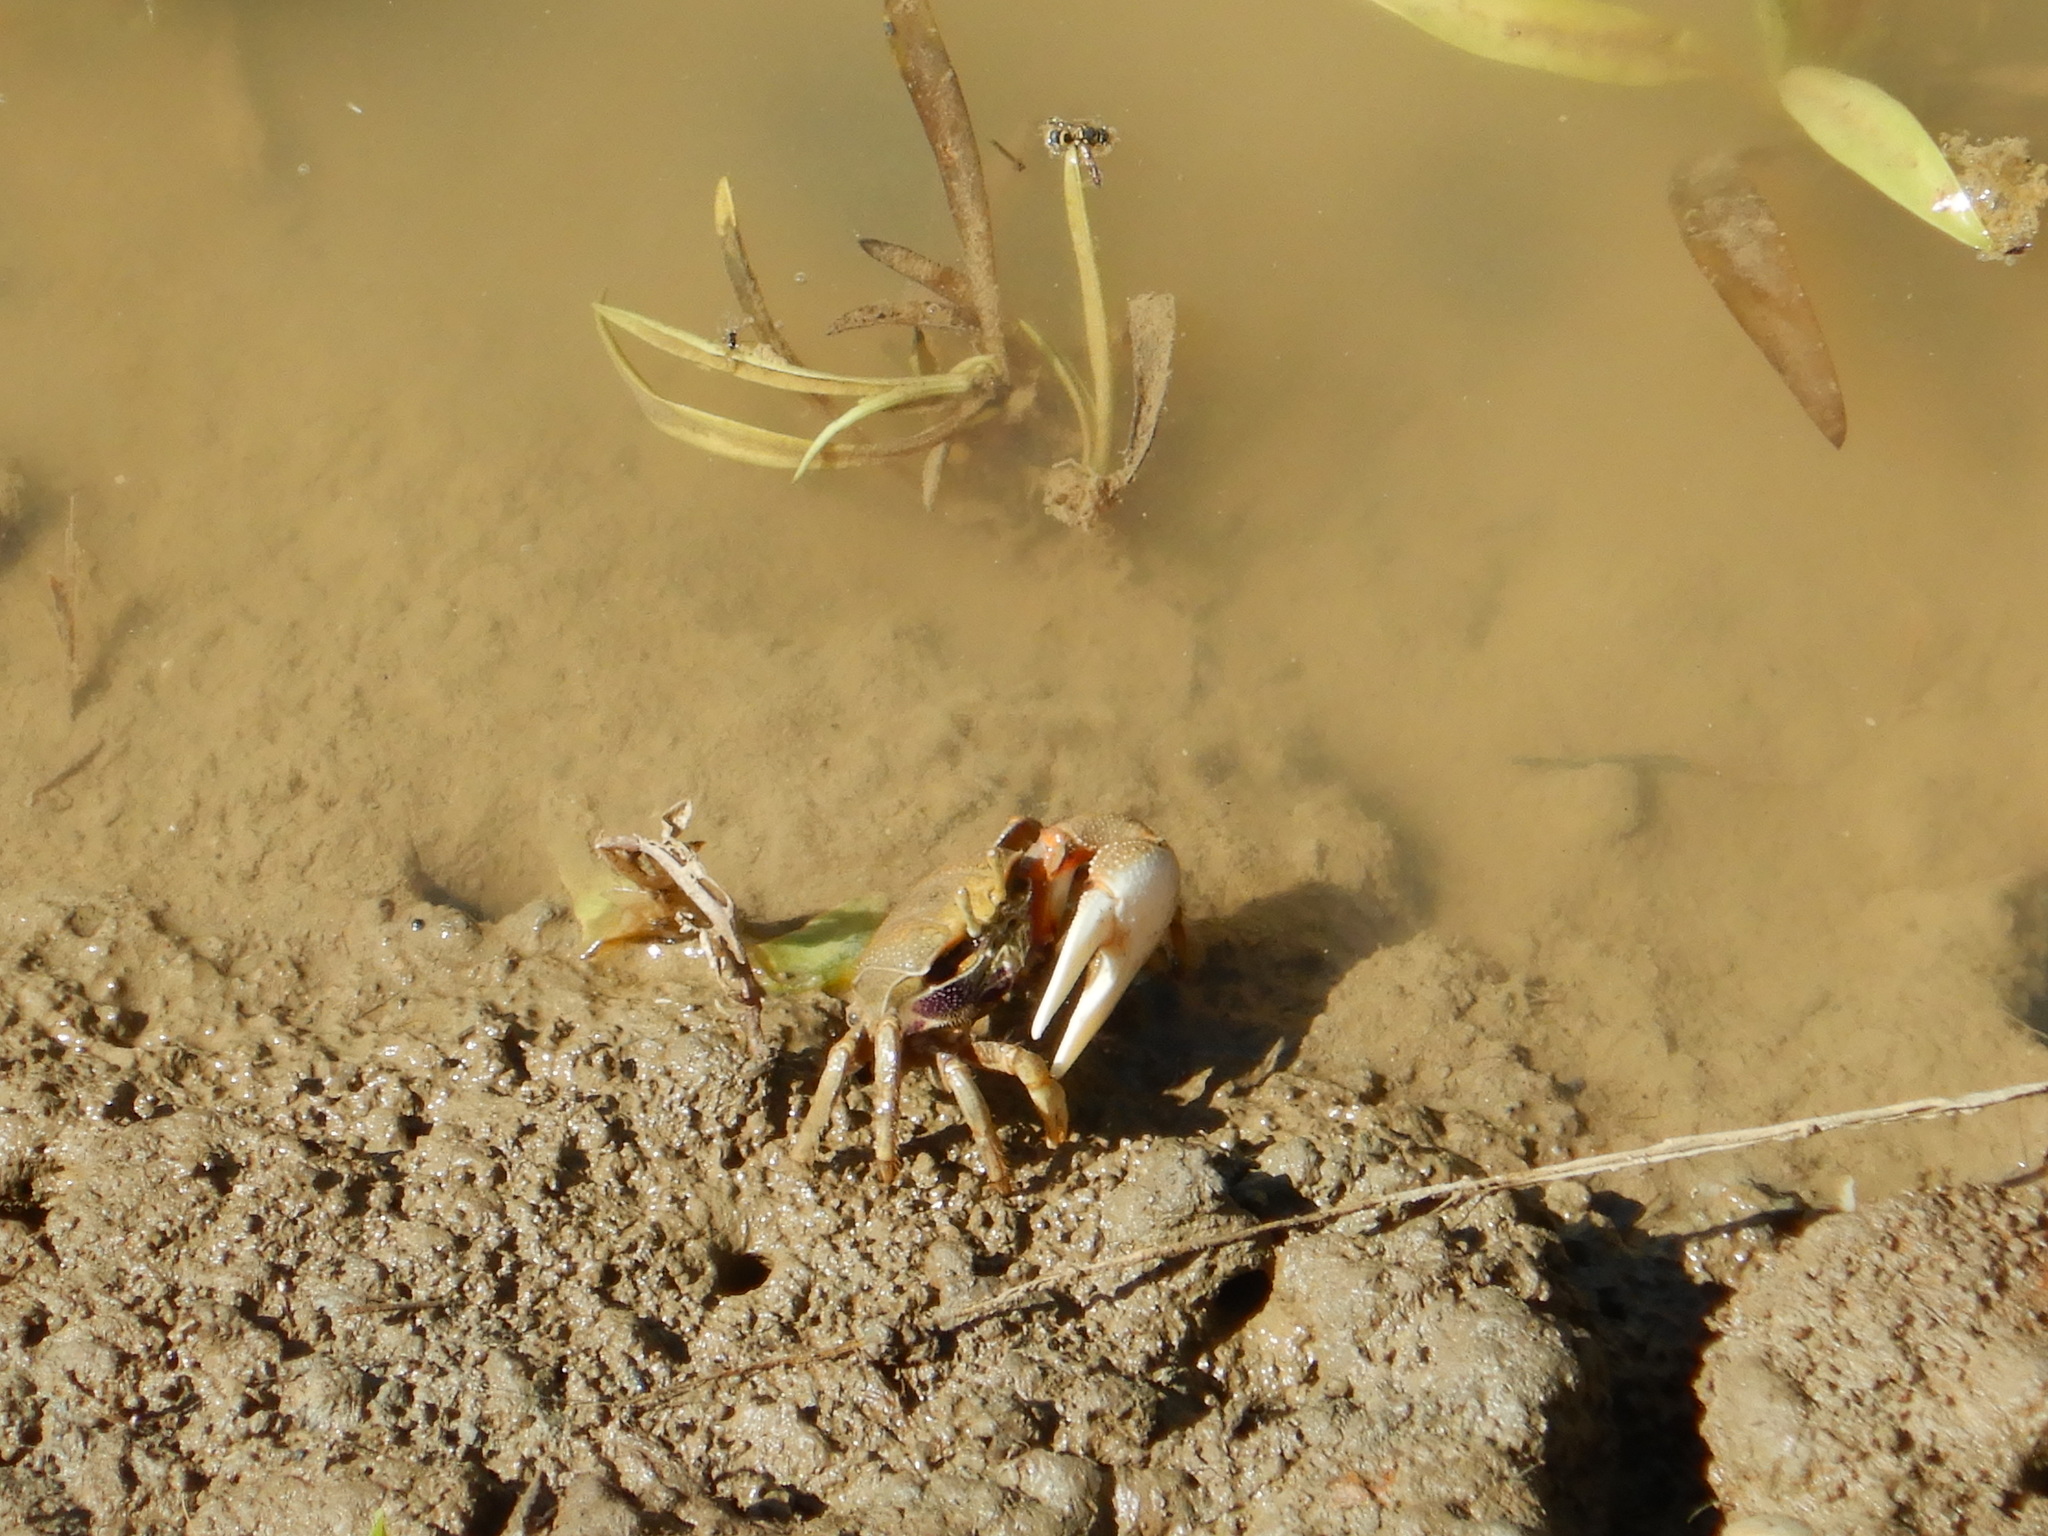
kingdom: Animalia
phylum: Arthropoda
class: Malacostraca
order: Decapoda
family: Ocypodidae
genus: Afruca
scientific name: Afruca tangeri
